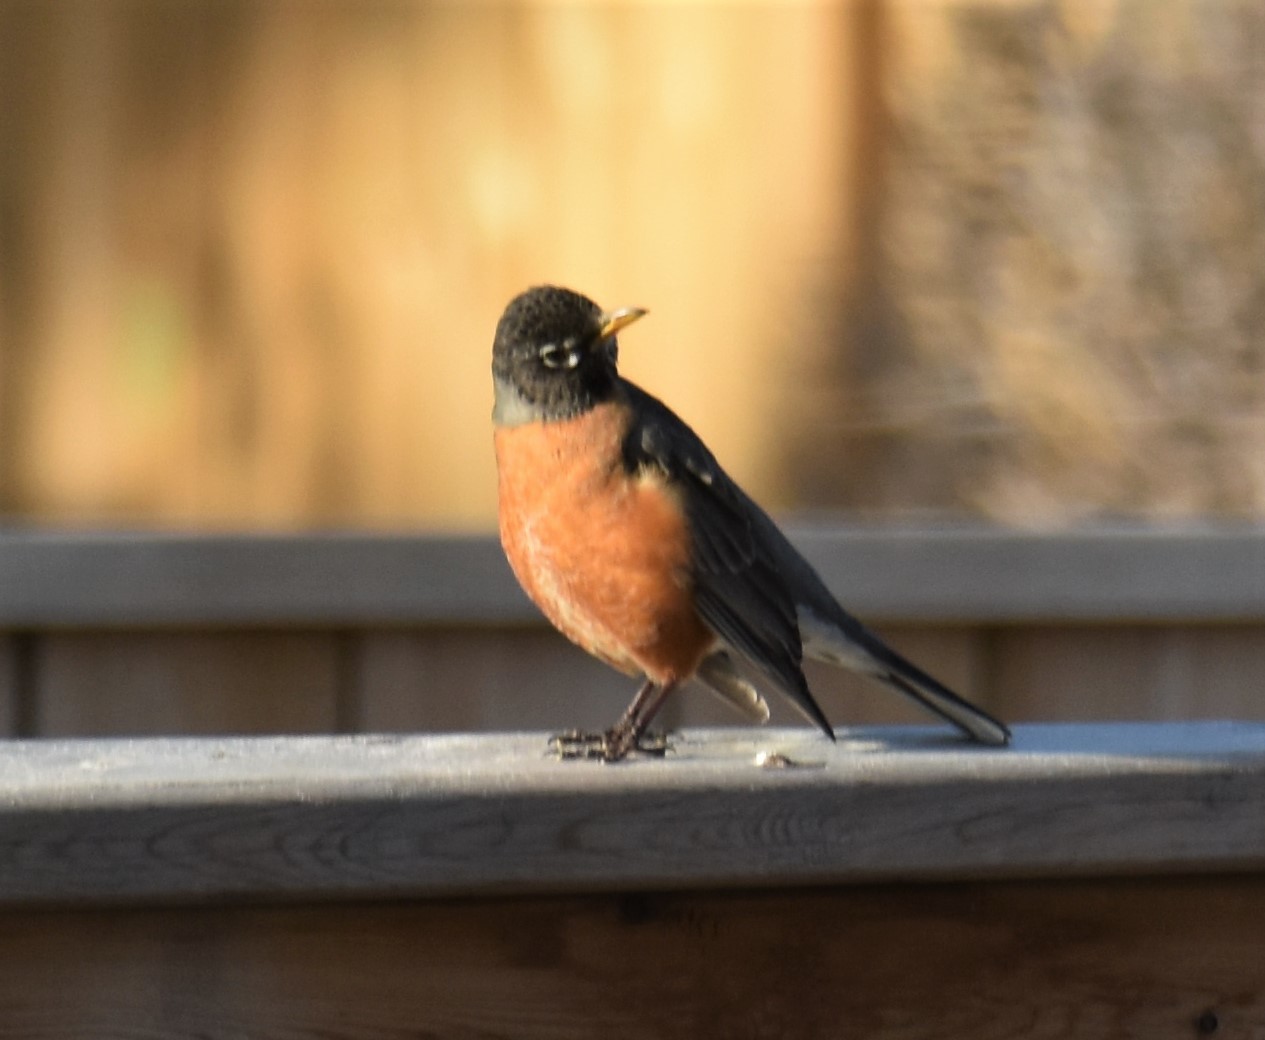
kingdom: Animalia
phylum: Chordata
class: Aves
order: Passeriformes
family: Turdidae
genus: Turdus
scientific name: Turdus migratorius
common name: American robin
